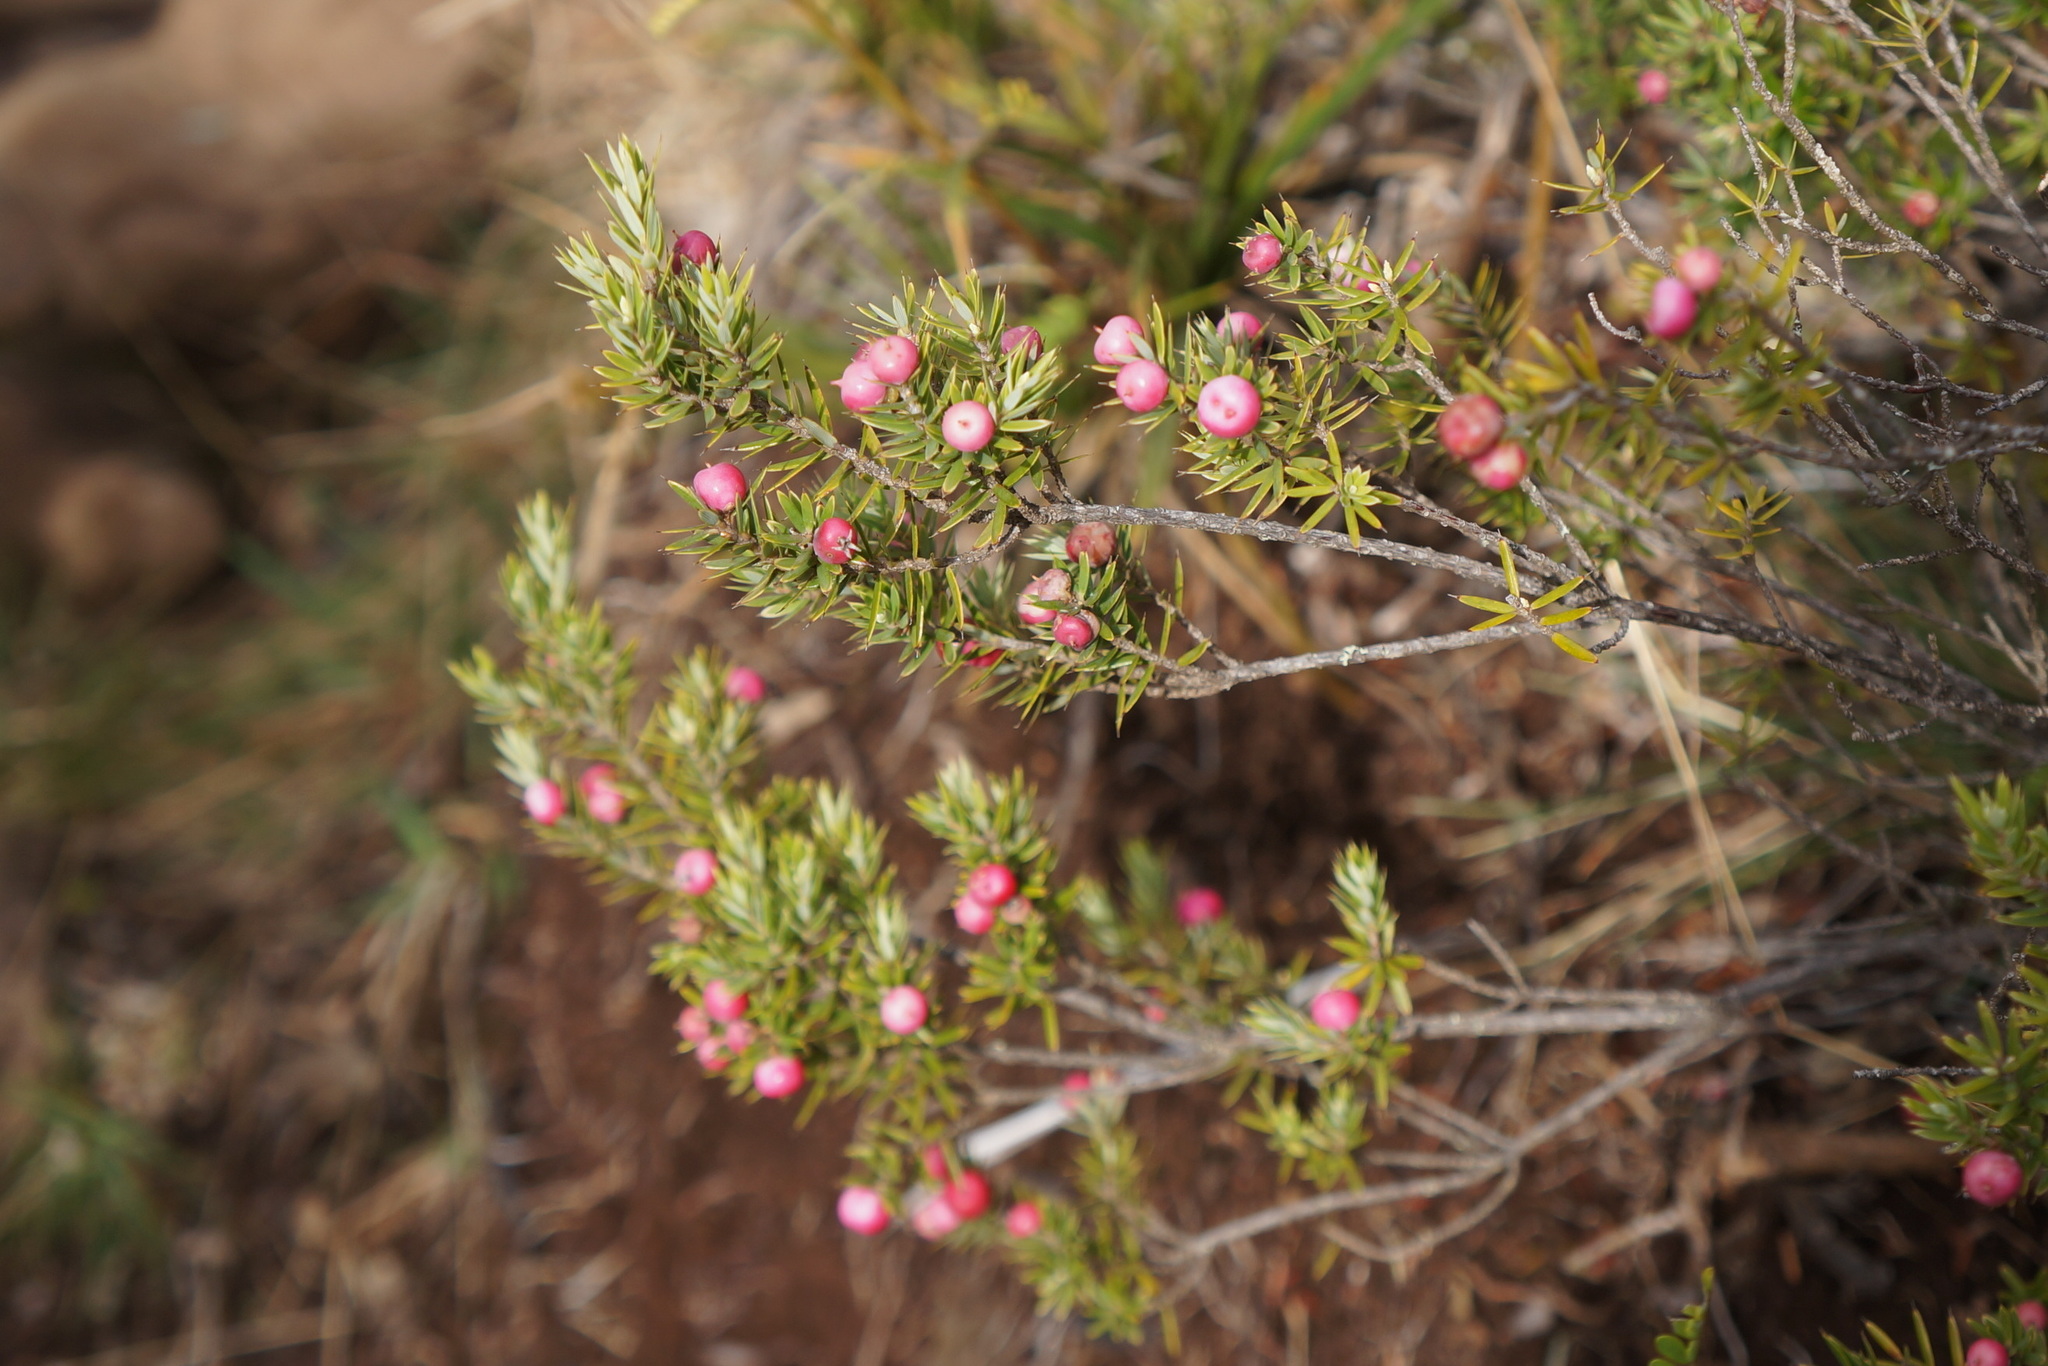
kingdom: Plantae
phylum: Tracheophyta
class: Magnoliopsida
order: Ericales
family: Ericaceae
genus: Leptecophylla
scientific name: Leptecophylla tameiameiae
